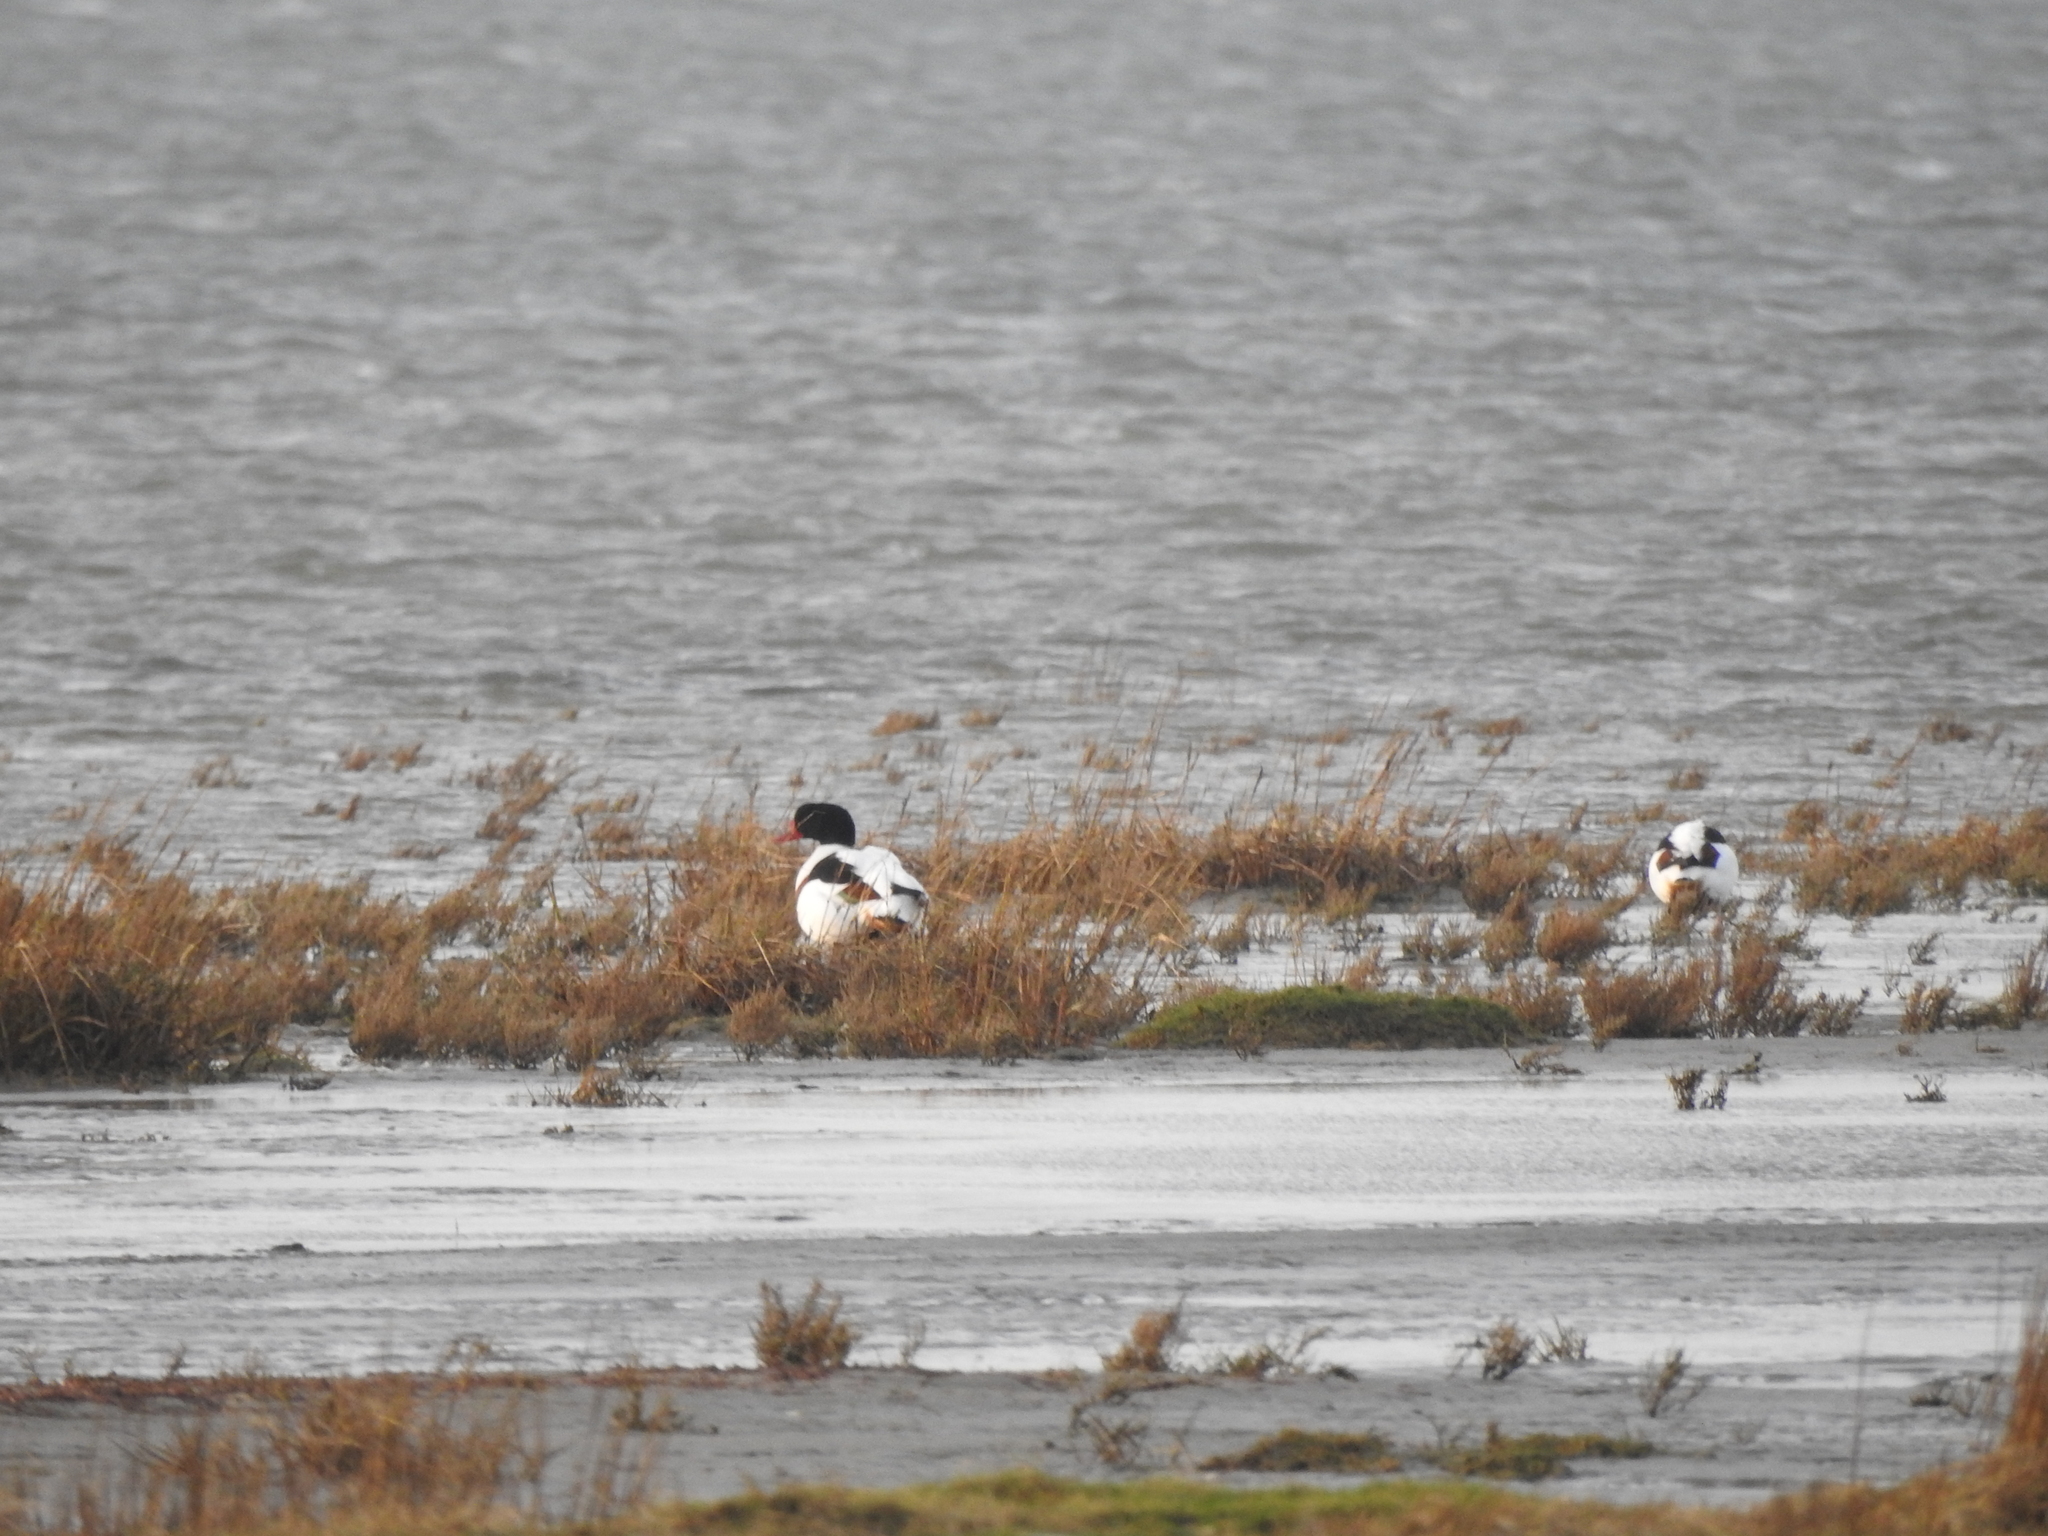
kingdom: Animalia
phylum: Chordata
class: Aves
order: Anseriformes
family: Anatidae
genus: Tadorna
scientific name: Tadorna tadorna
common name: Common shelduck
